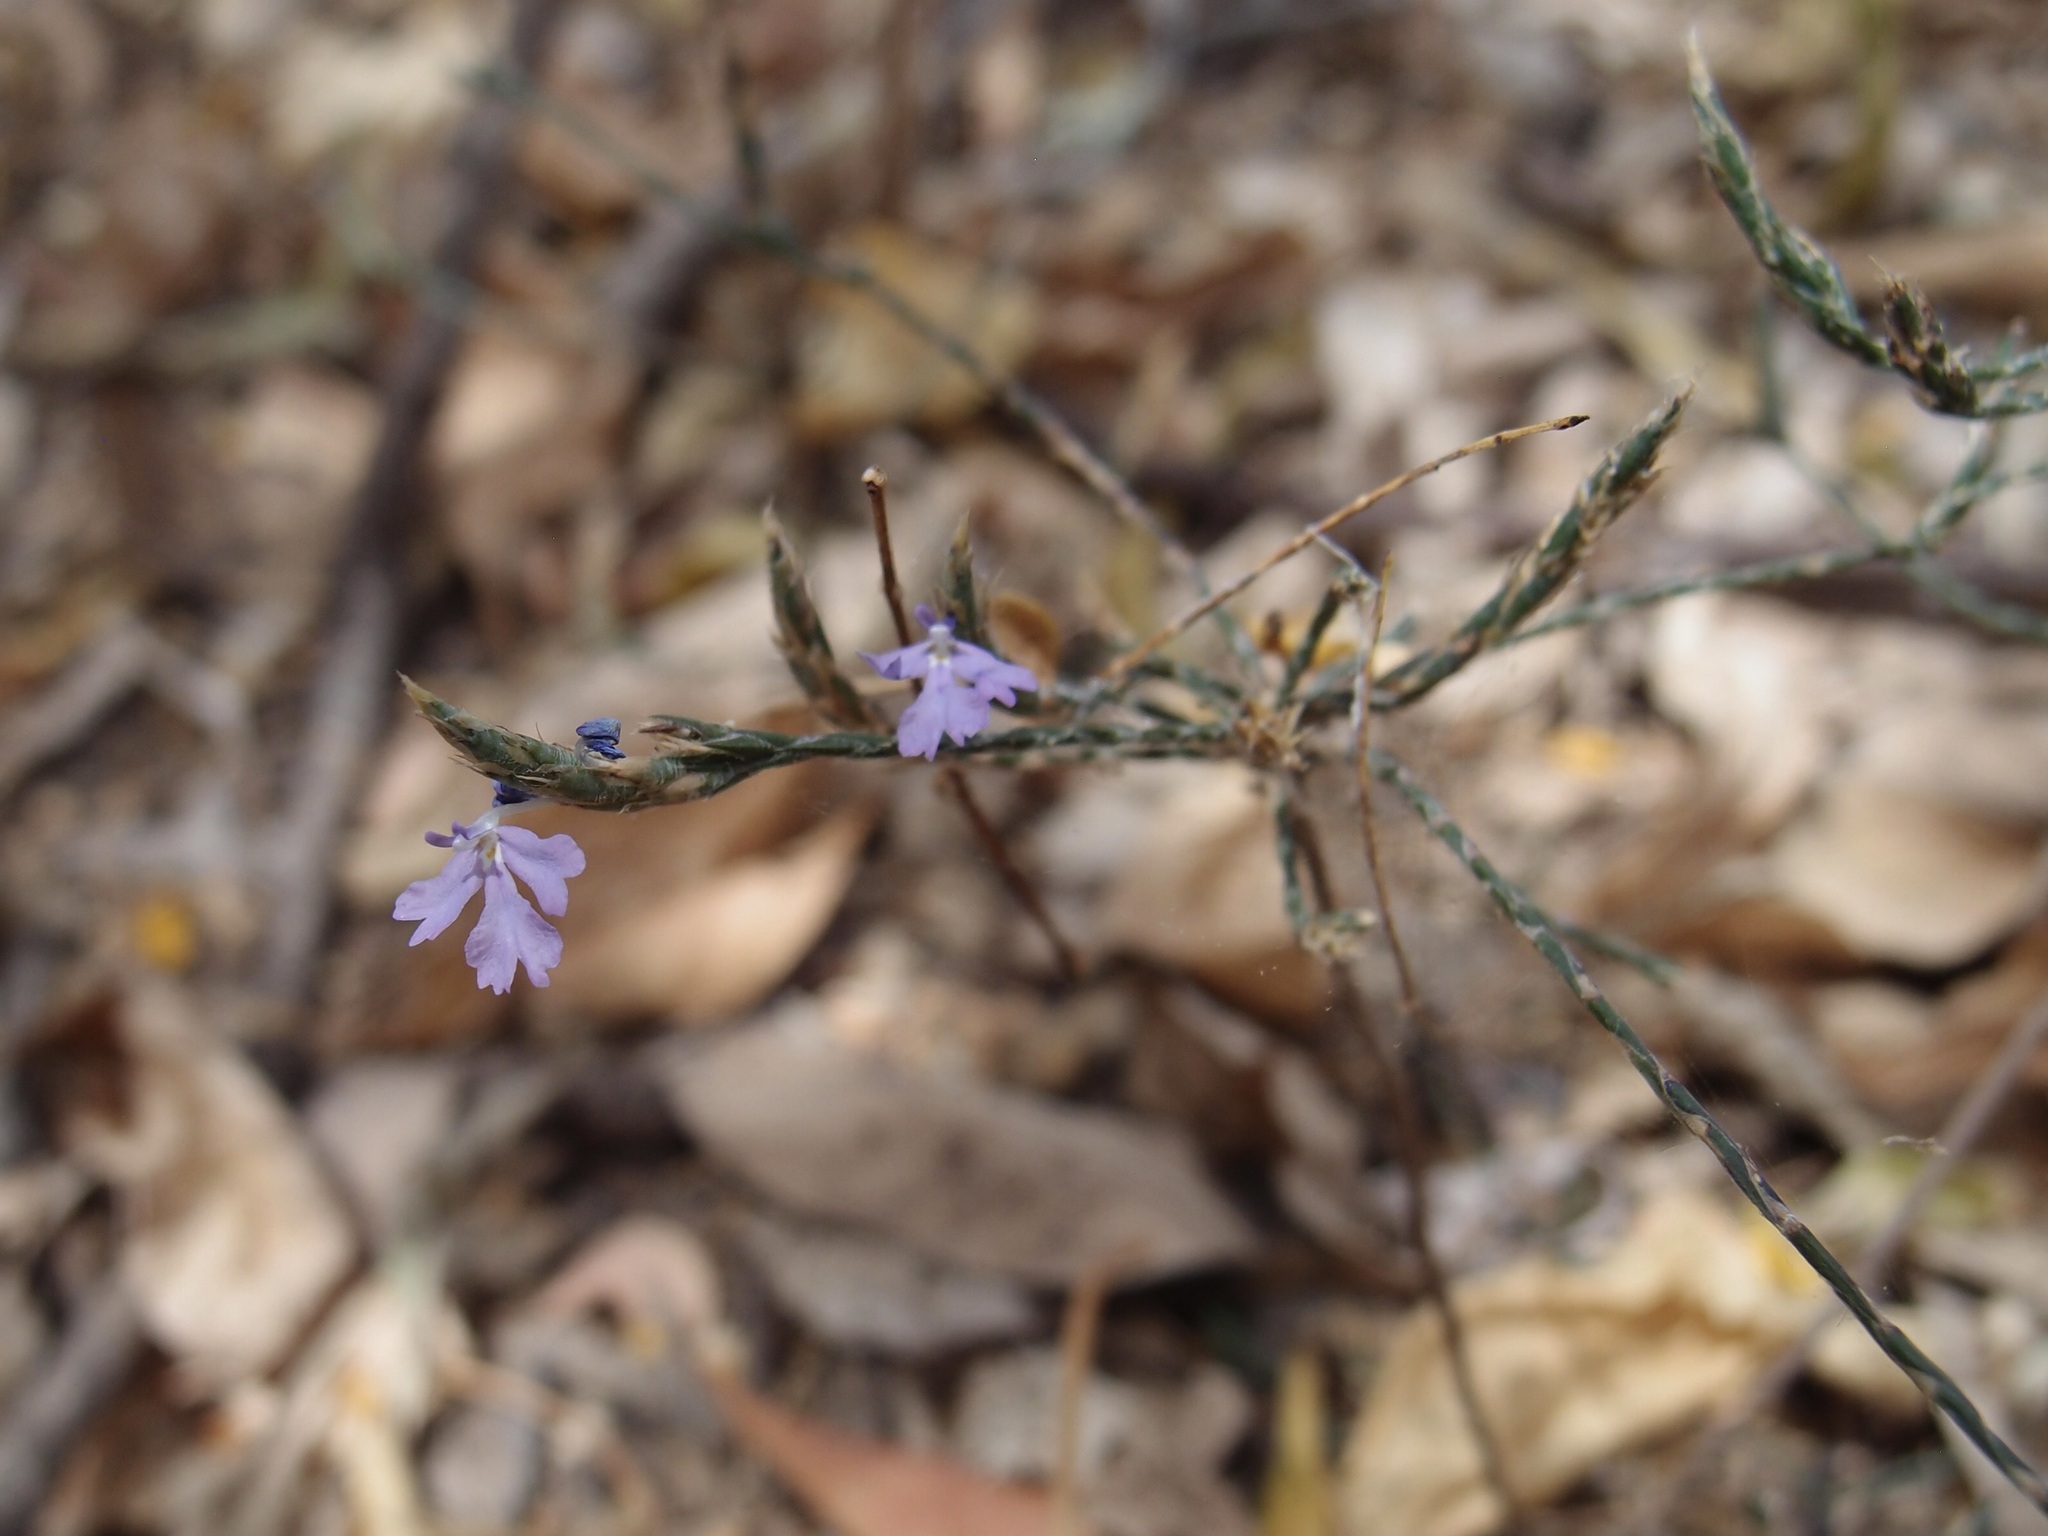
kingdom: Plantae
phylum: Tracheophyta
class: Magnoliopsida
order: Lamiales
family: Acanthaceae
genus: Elytraria
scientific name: Elytraria imbricata
